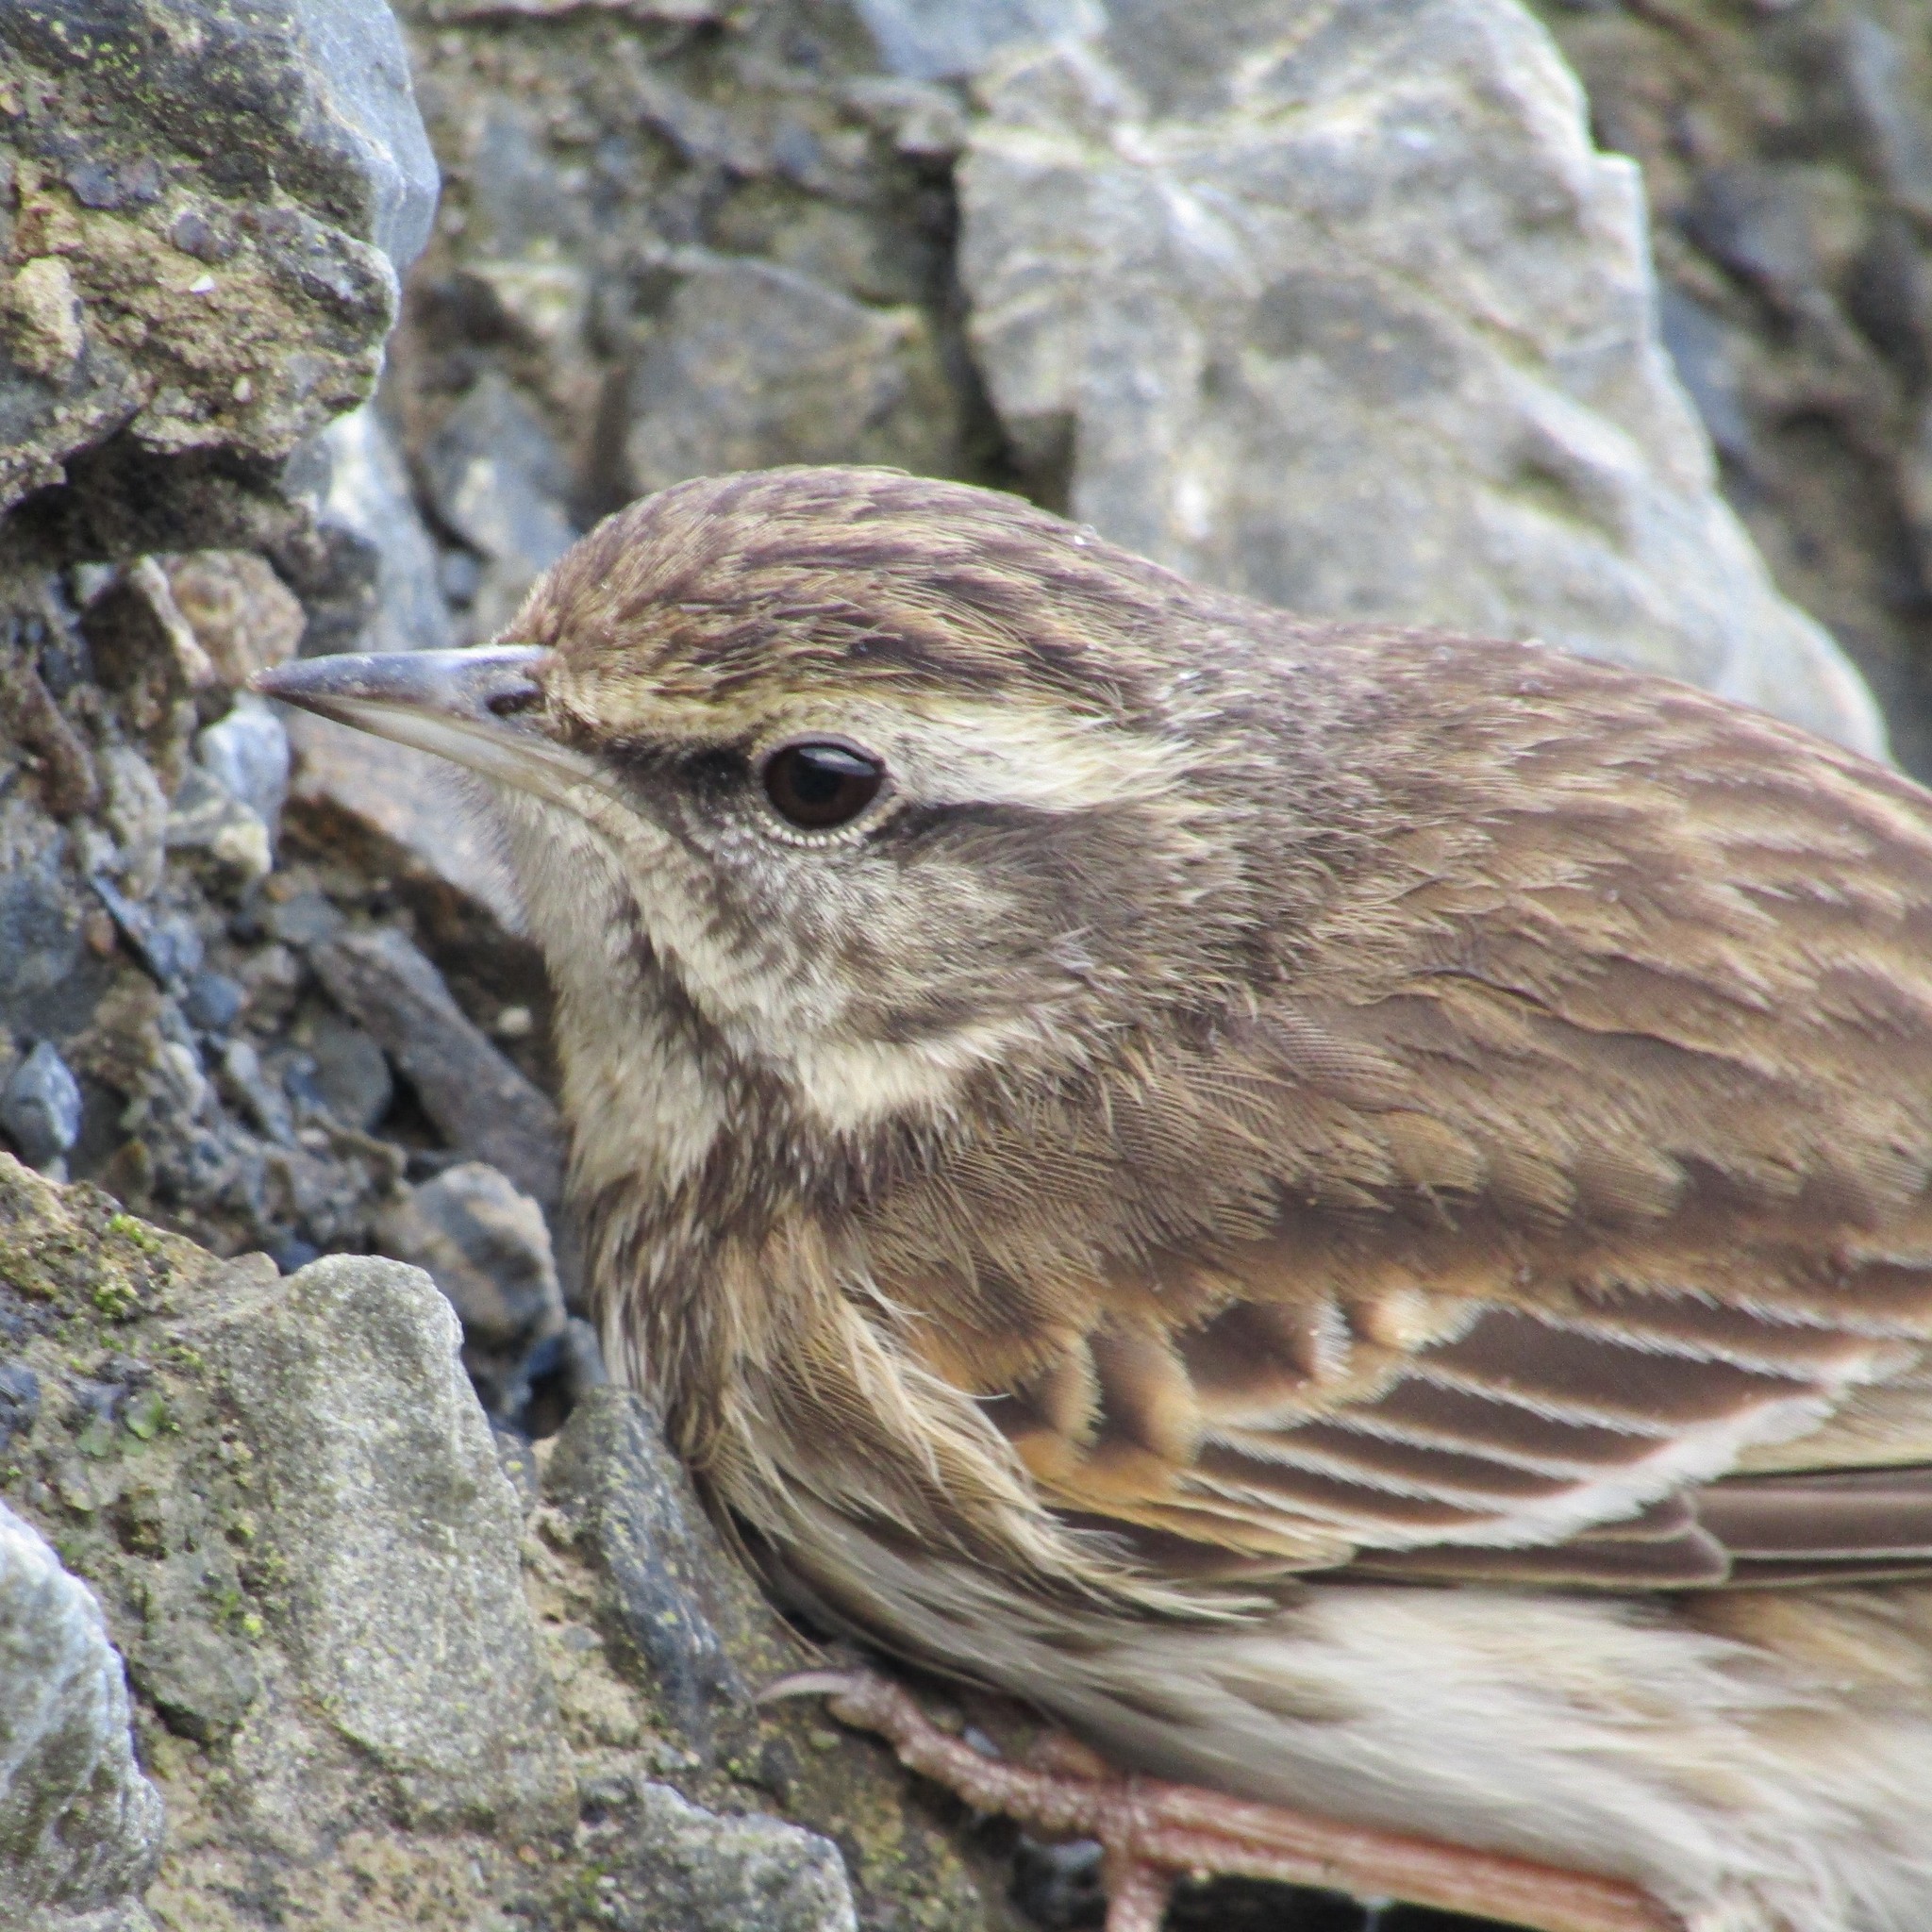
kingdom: Animalia
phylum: Chordata
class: Aves
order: Passeriformes
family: Motacillidae
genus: Anthus
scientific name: Anthus novaeseelandiae
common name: New zealand pipit
